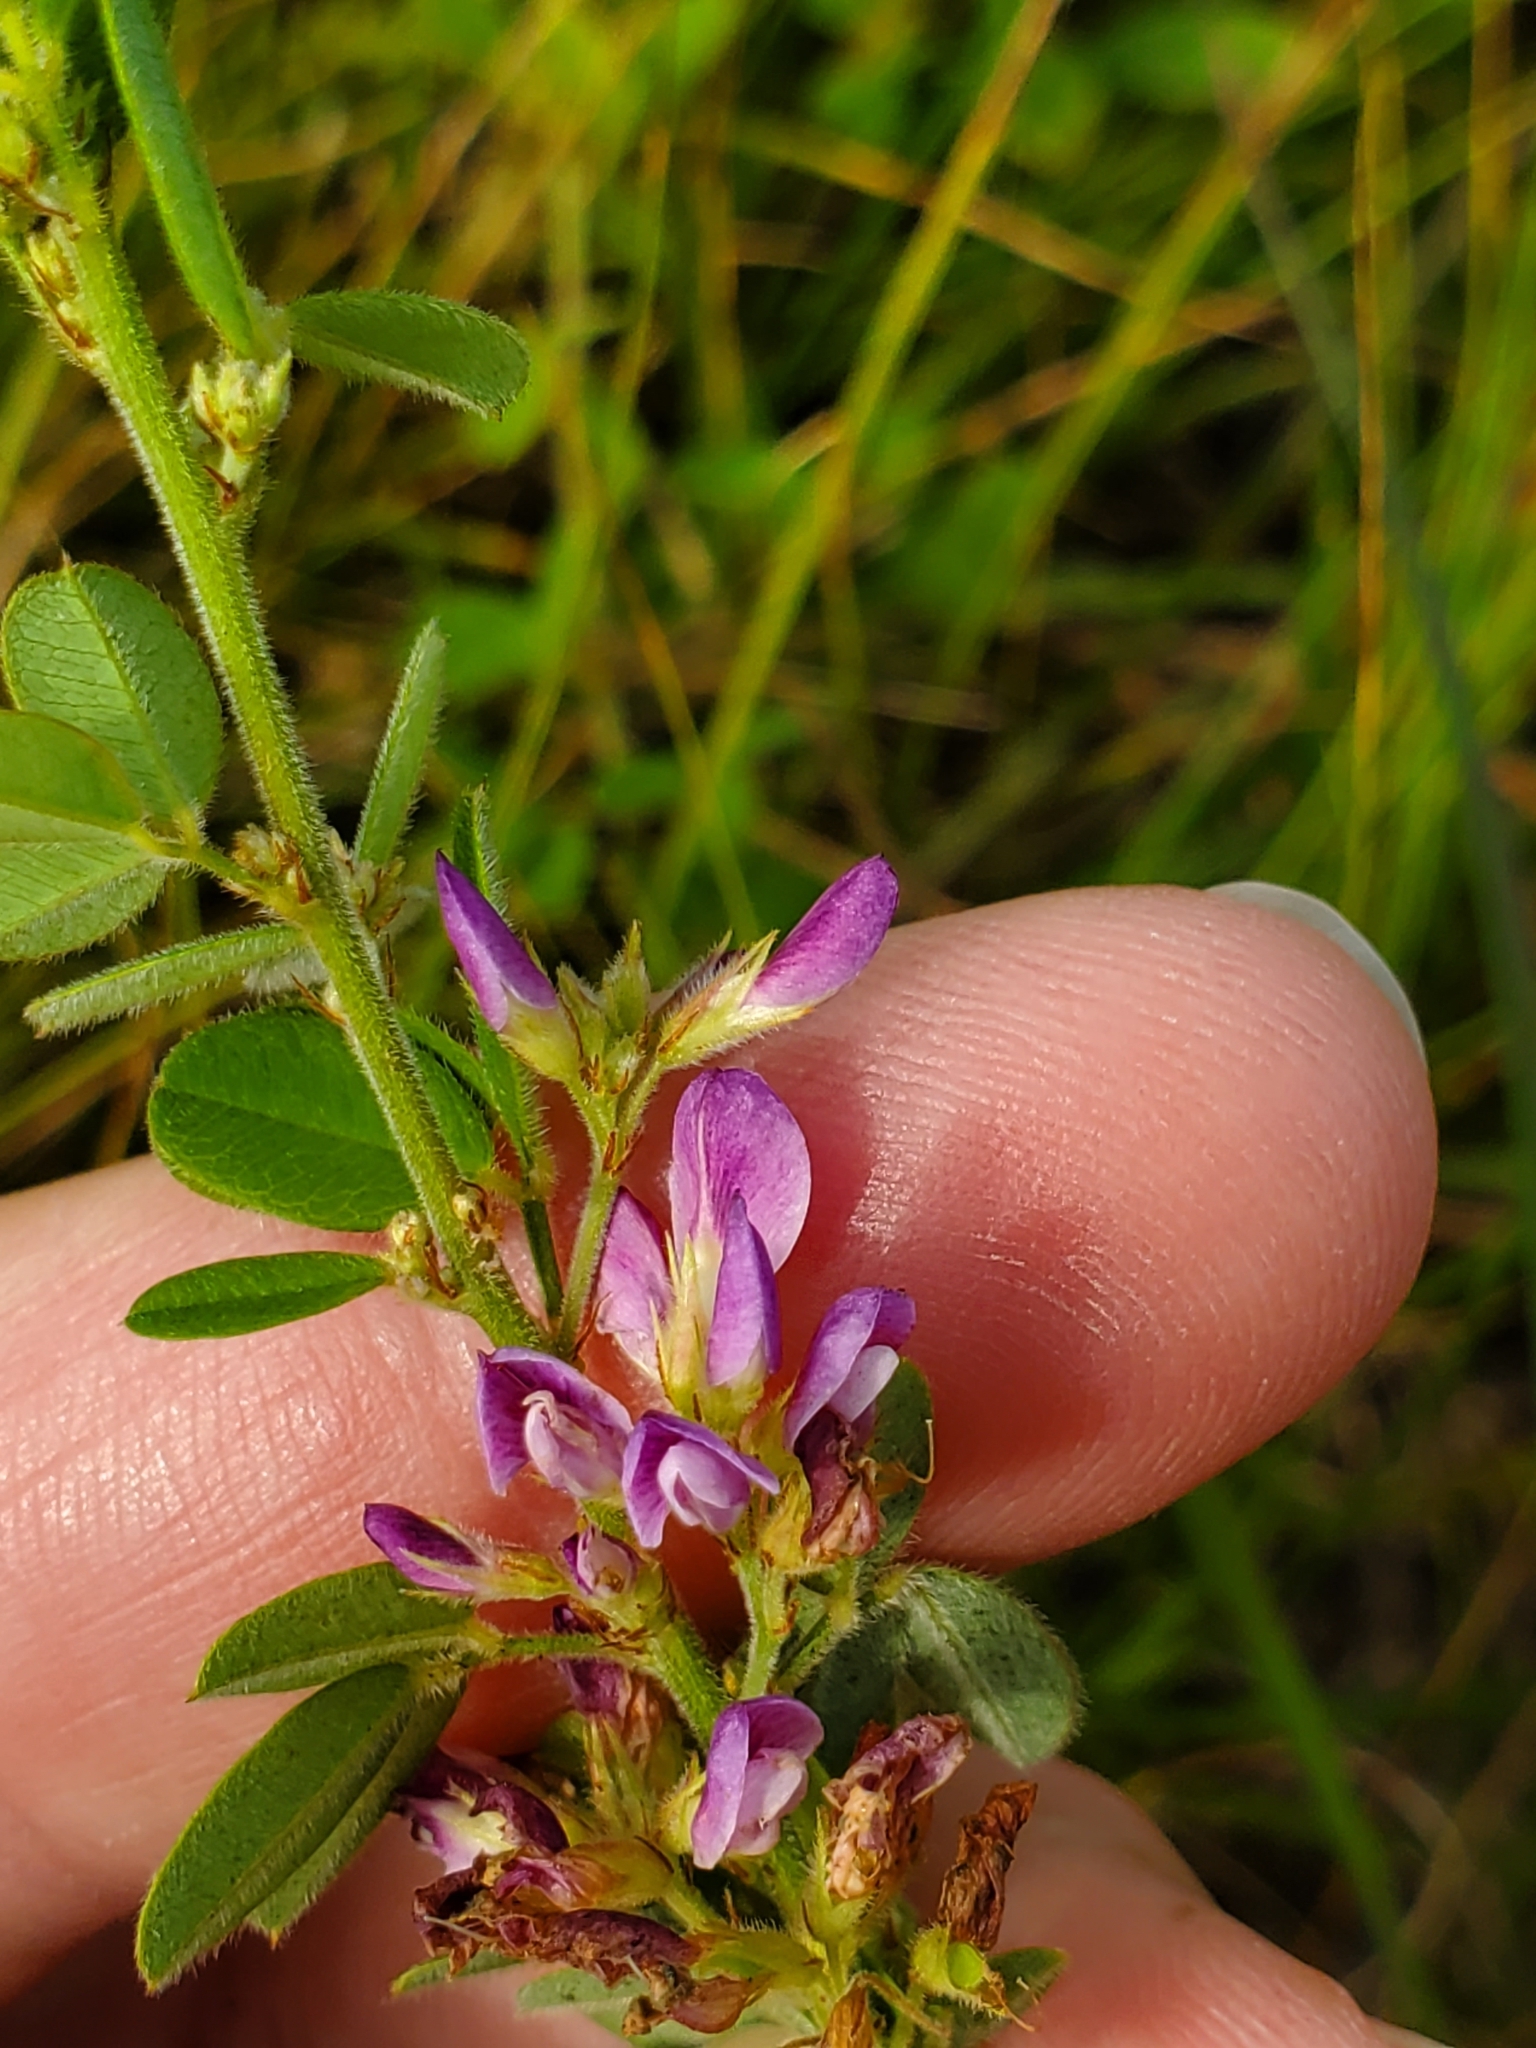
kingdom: Plantae
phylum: Tracheophyta
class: Magnoliopsida
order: Fabales
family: Fabaceae
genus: Lespedeza
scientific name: Lespedeza stuevei
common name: Tall bush-clover
